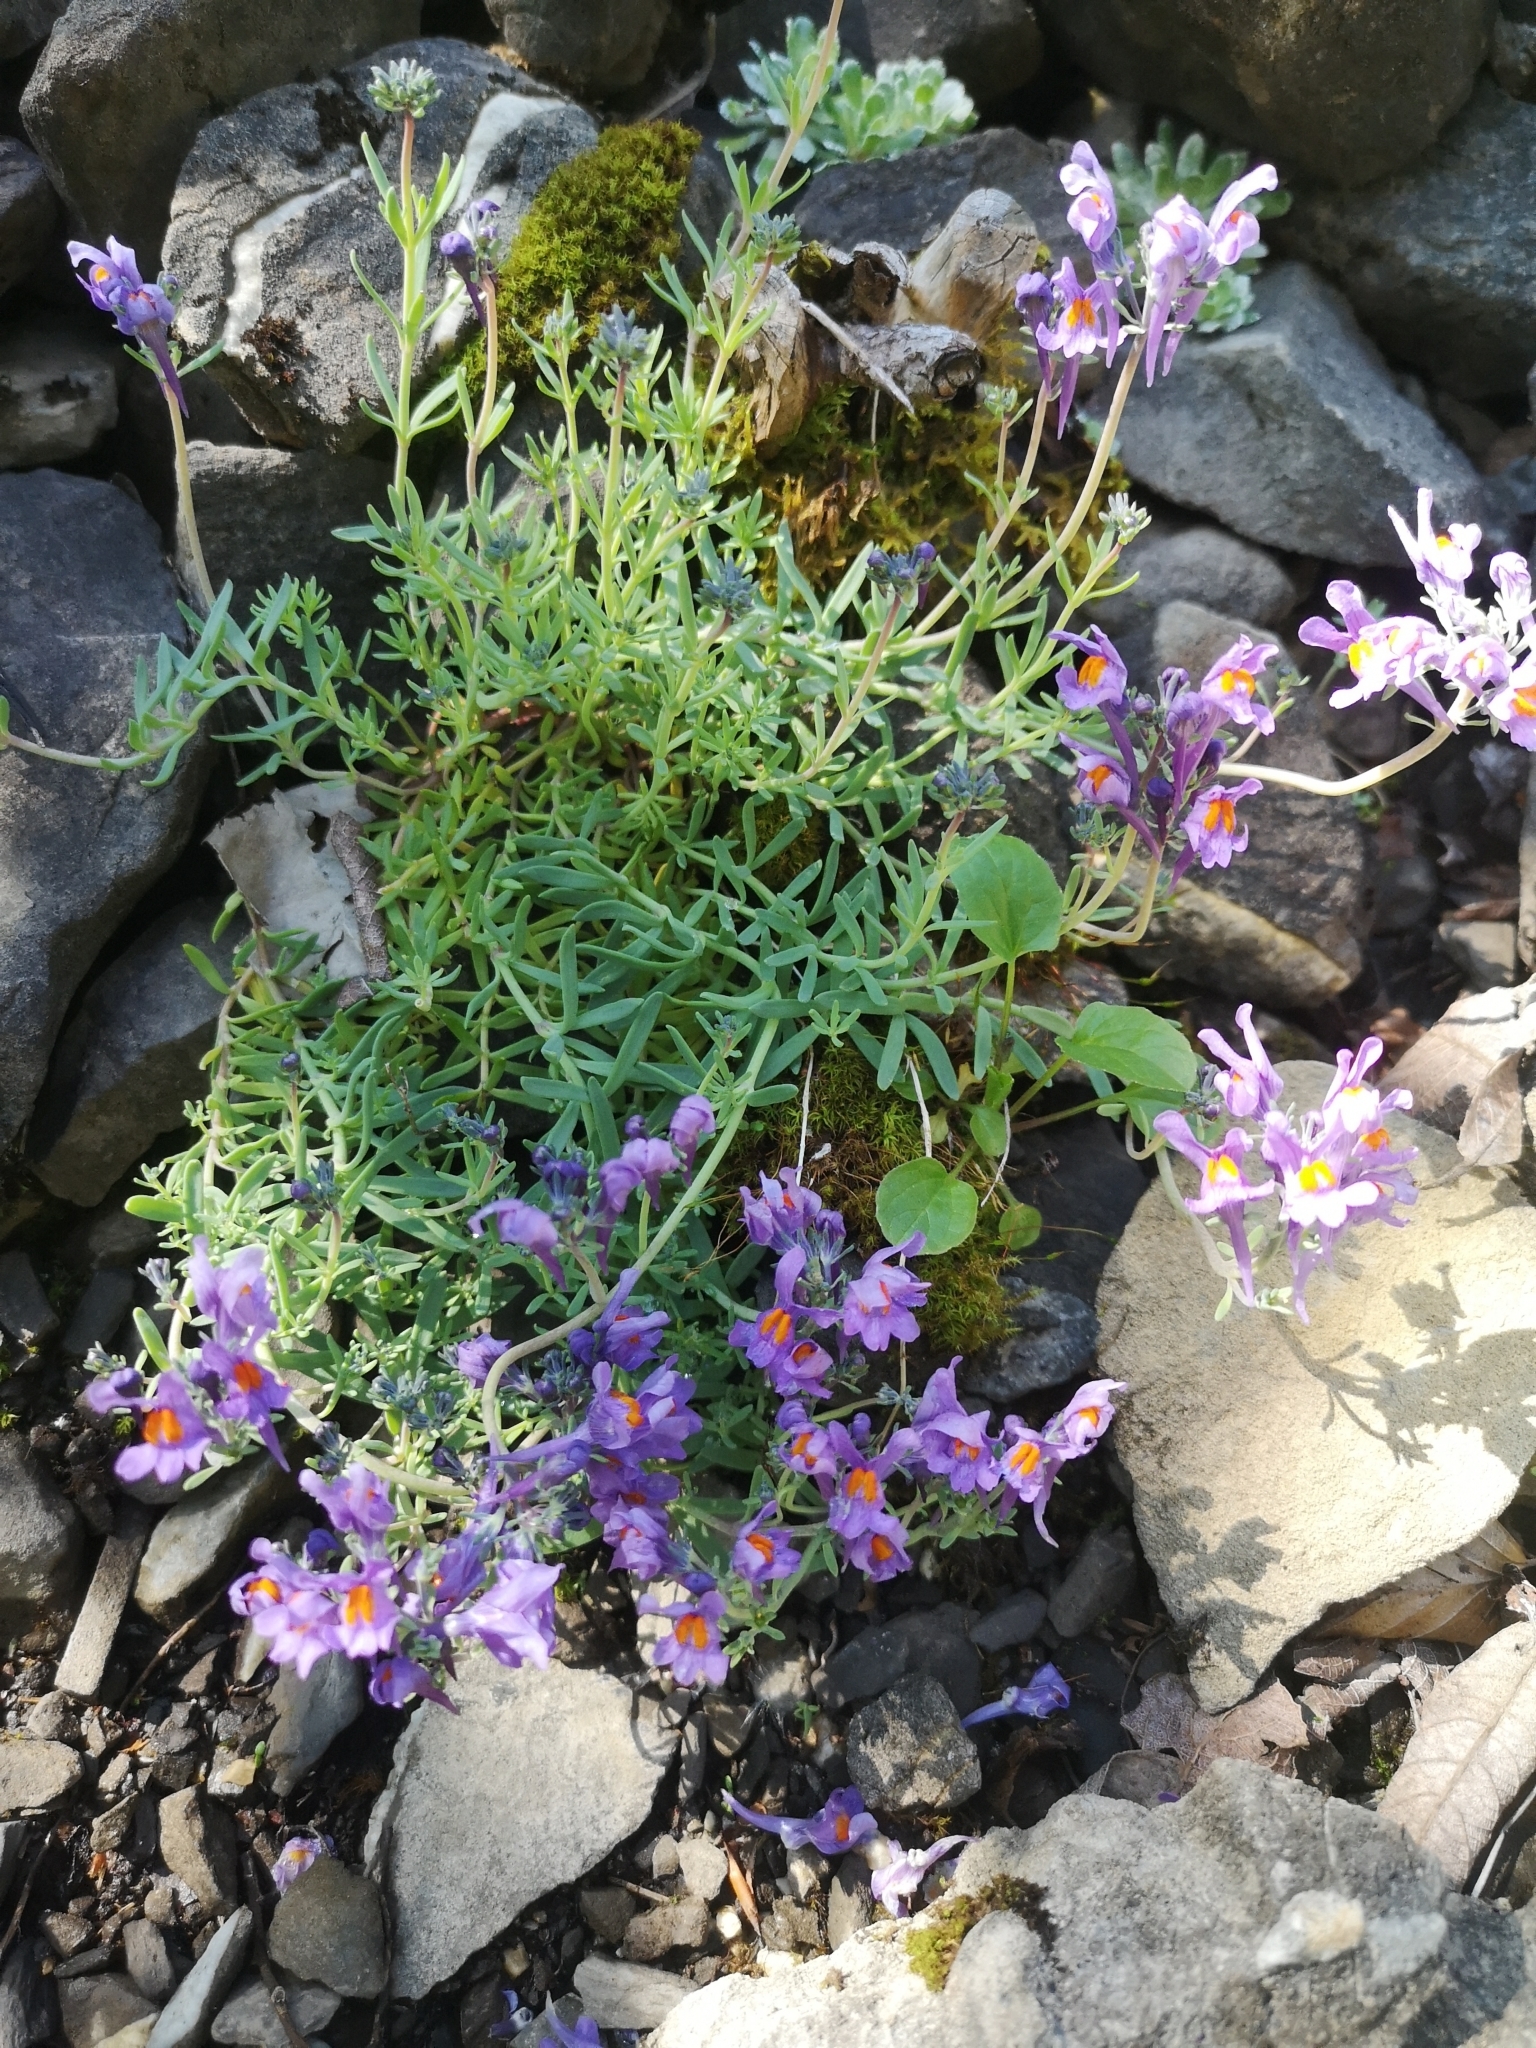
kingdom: Plantae
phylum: Tracheophyta
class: Magnoliopsida
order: Lamiales
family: Plantaginaceae
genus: Linaria
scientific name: Linaria alpina
